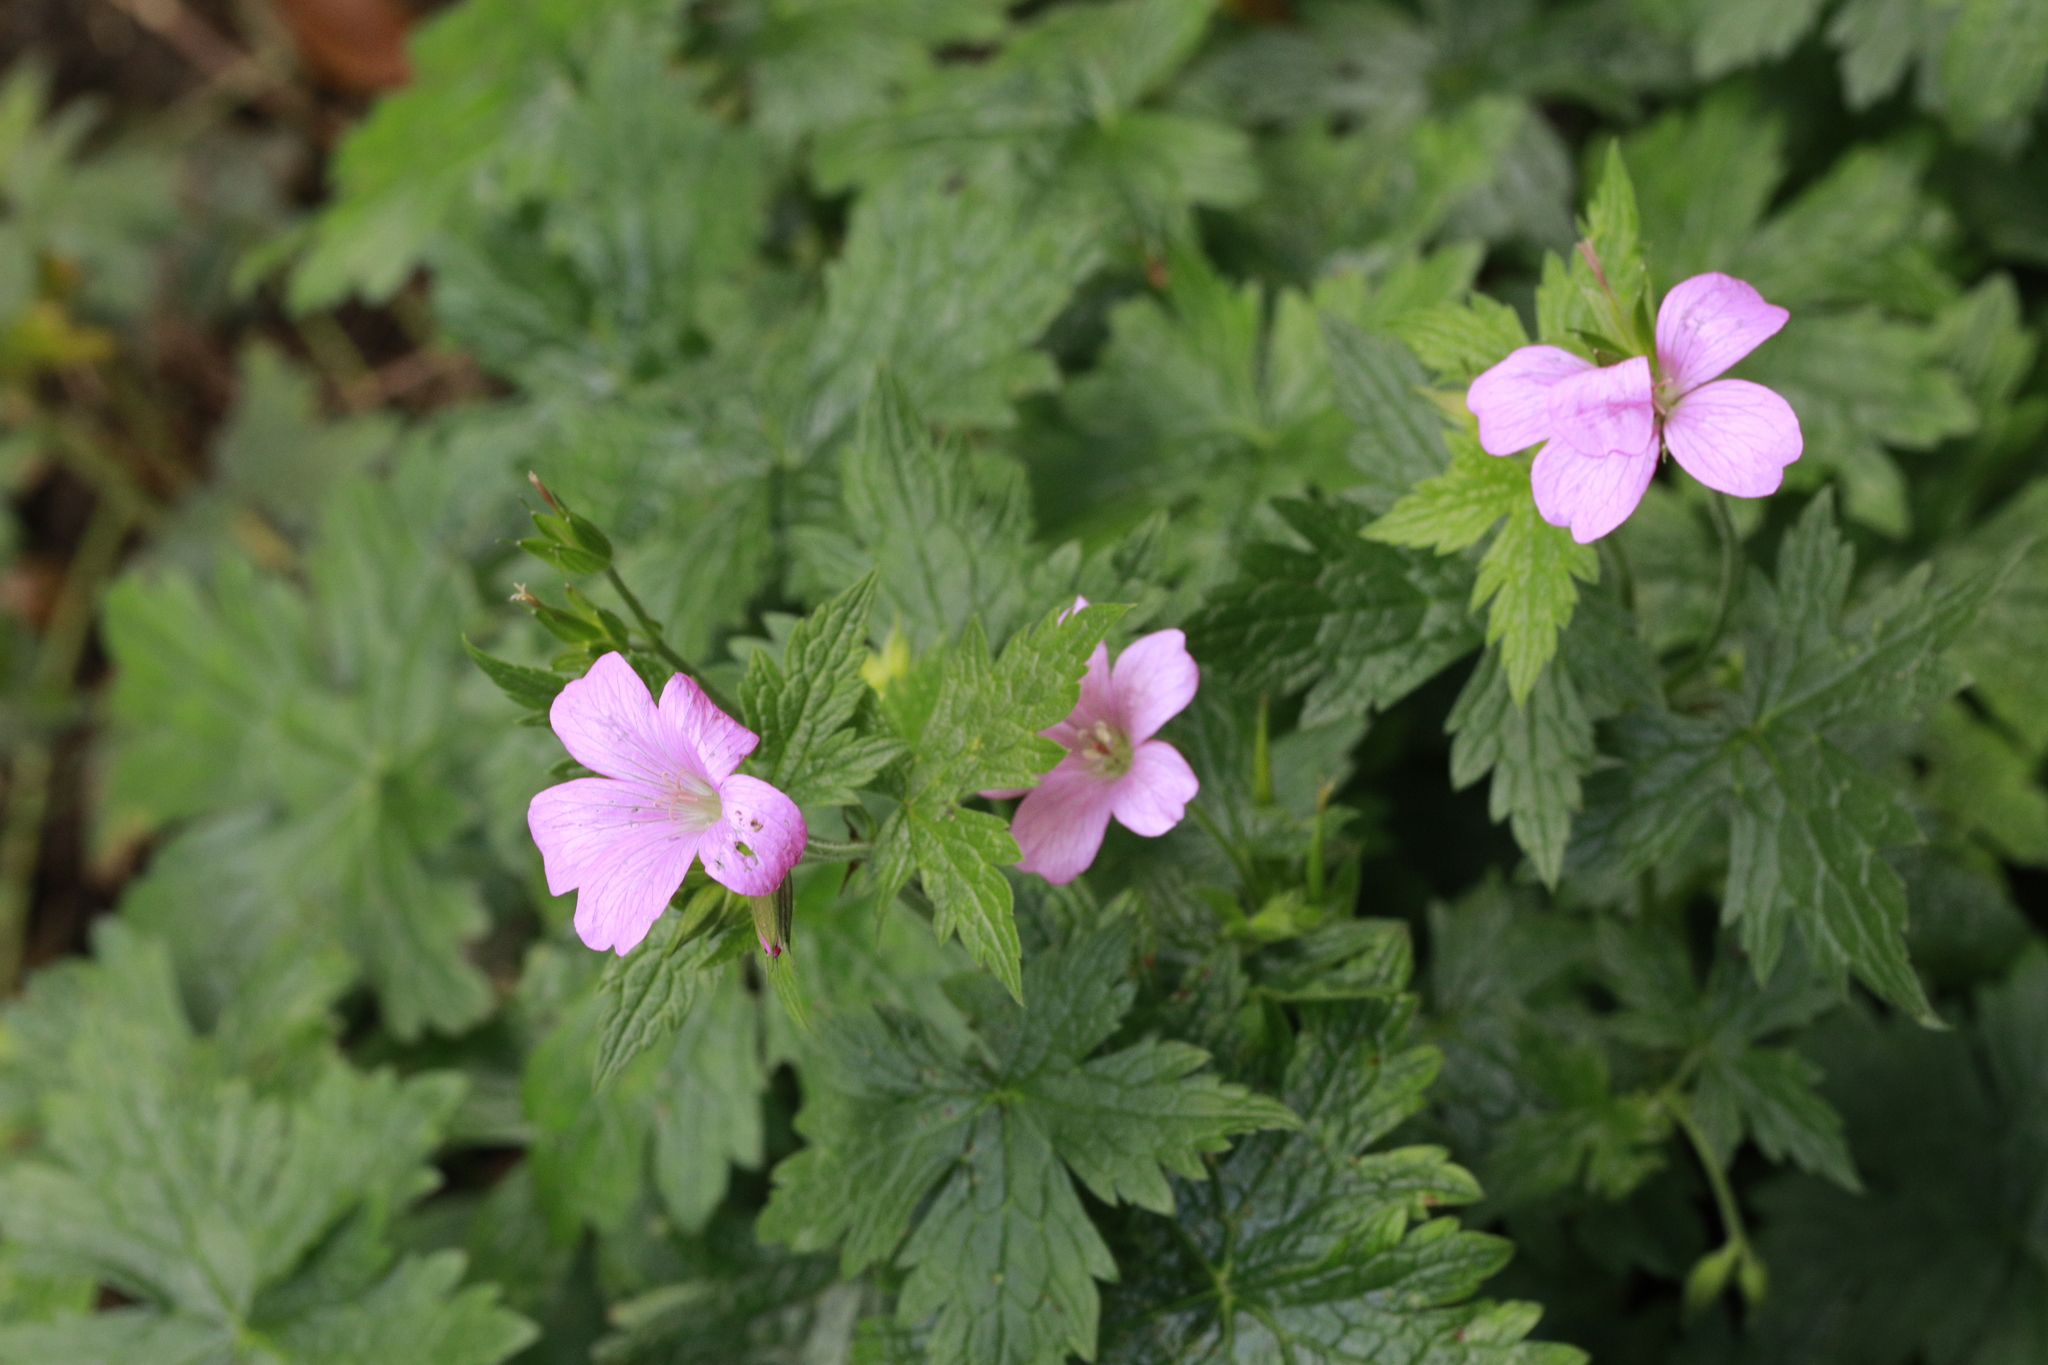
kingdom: Plantae
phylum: Tracheophyta
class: Magnoliopsida
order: Geraniales
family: Geraniaceae
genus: Geranium
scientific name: Geranium oxonianum
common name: Druce's crane's-bill
